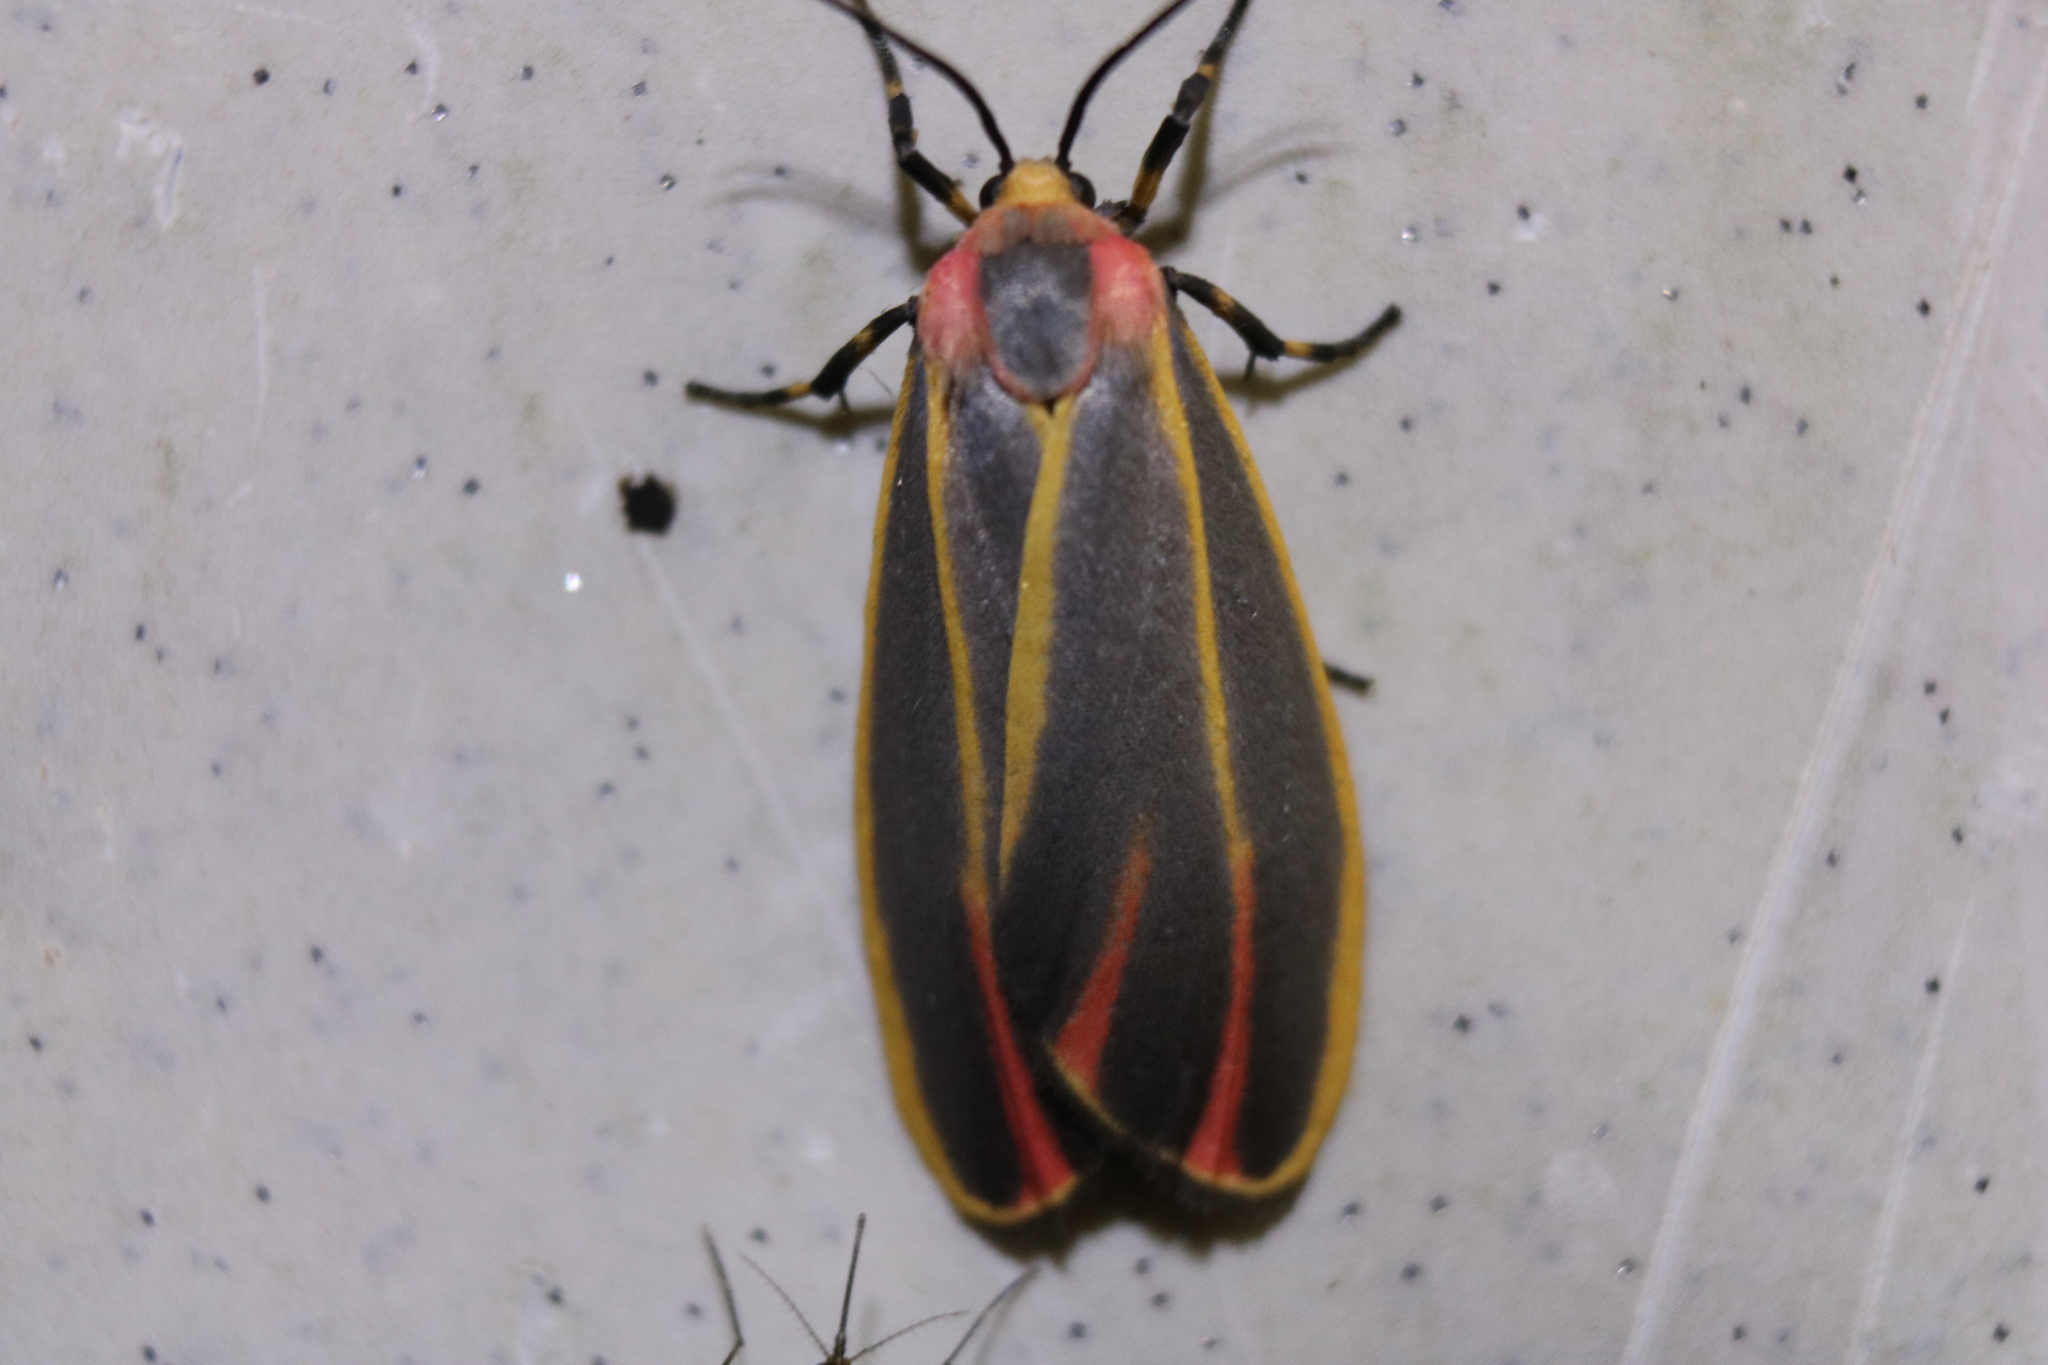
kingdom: Animalia
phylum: Arthropoda
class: Insecta
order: Lepidoptera
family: Erebidae
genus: Hypoprepia
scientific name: Hypoprepia fucosa
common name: Painted lichen moth
